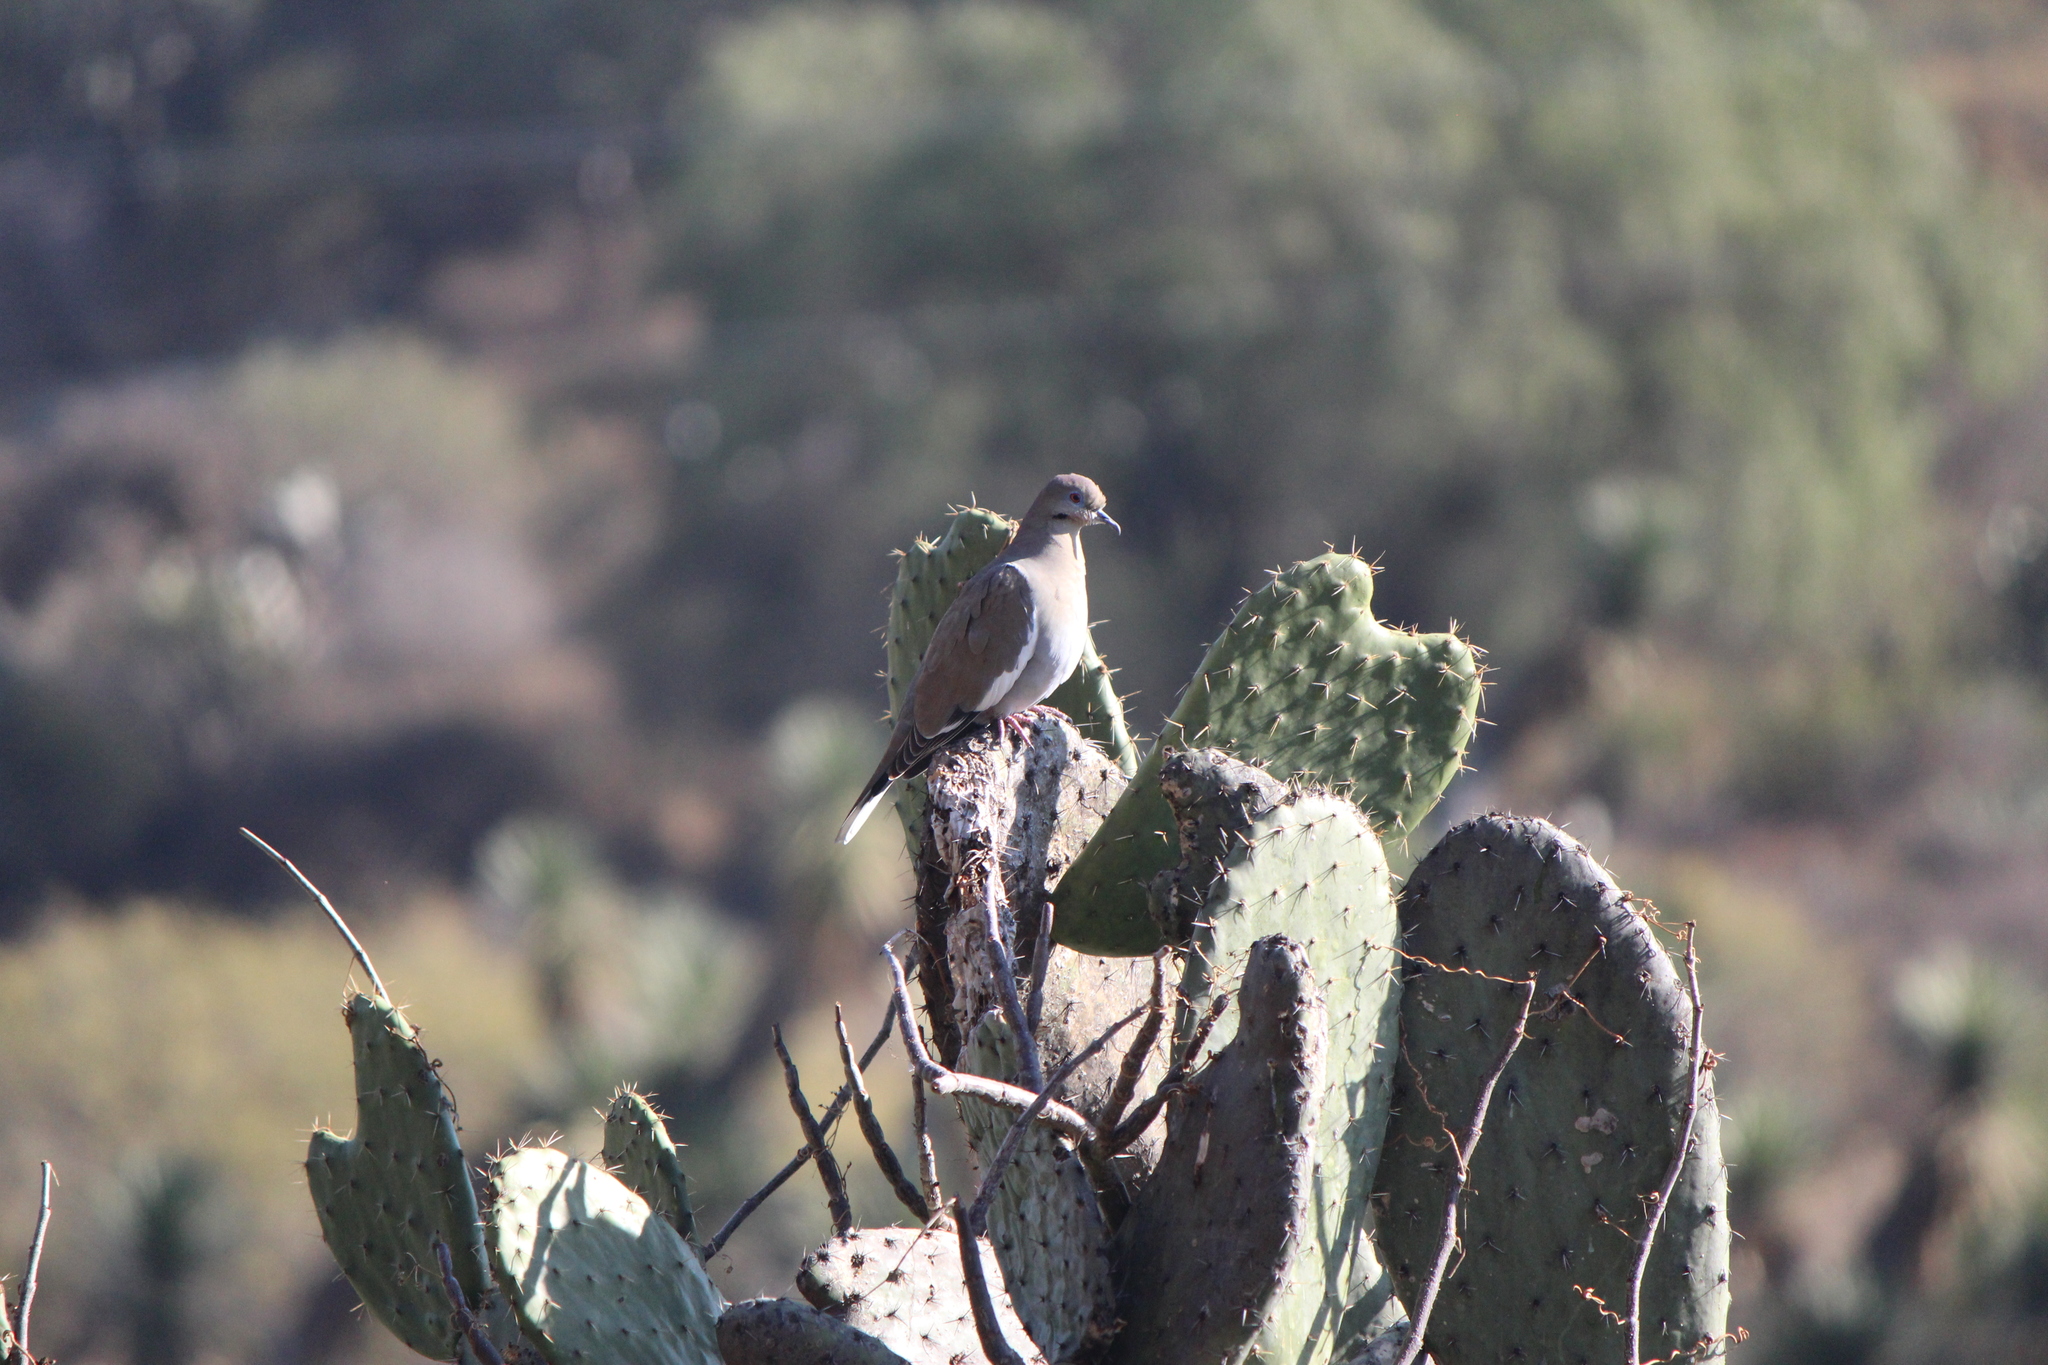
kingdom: Animalia
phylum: Chordata
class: Aves
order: Columbiformes
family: Columbidae
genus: Zenaida
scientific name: Zenaida asiatica
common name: White-winged dove
